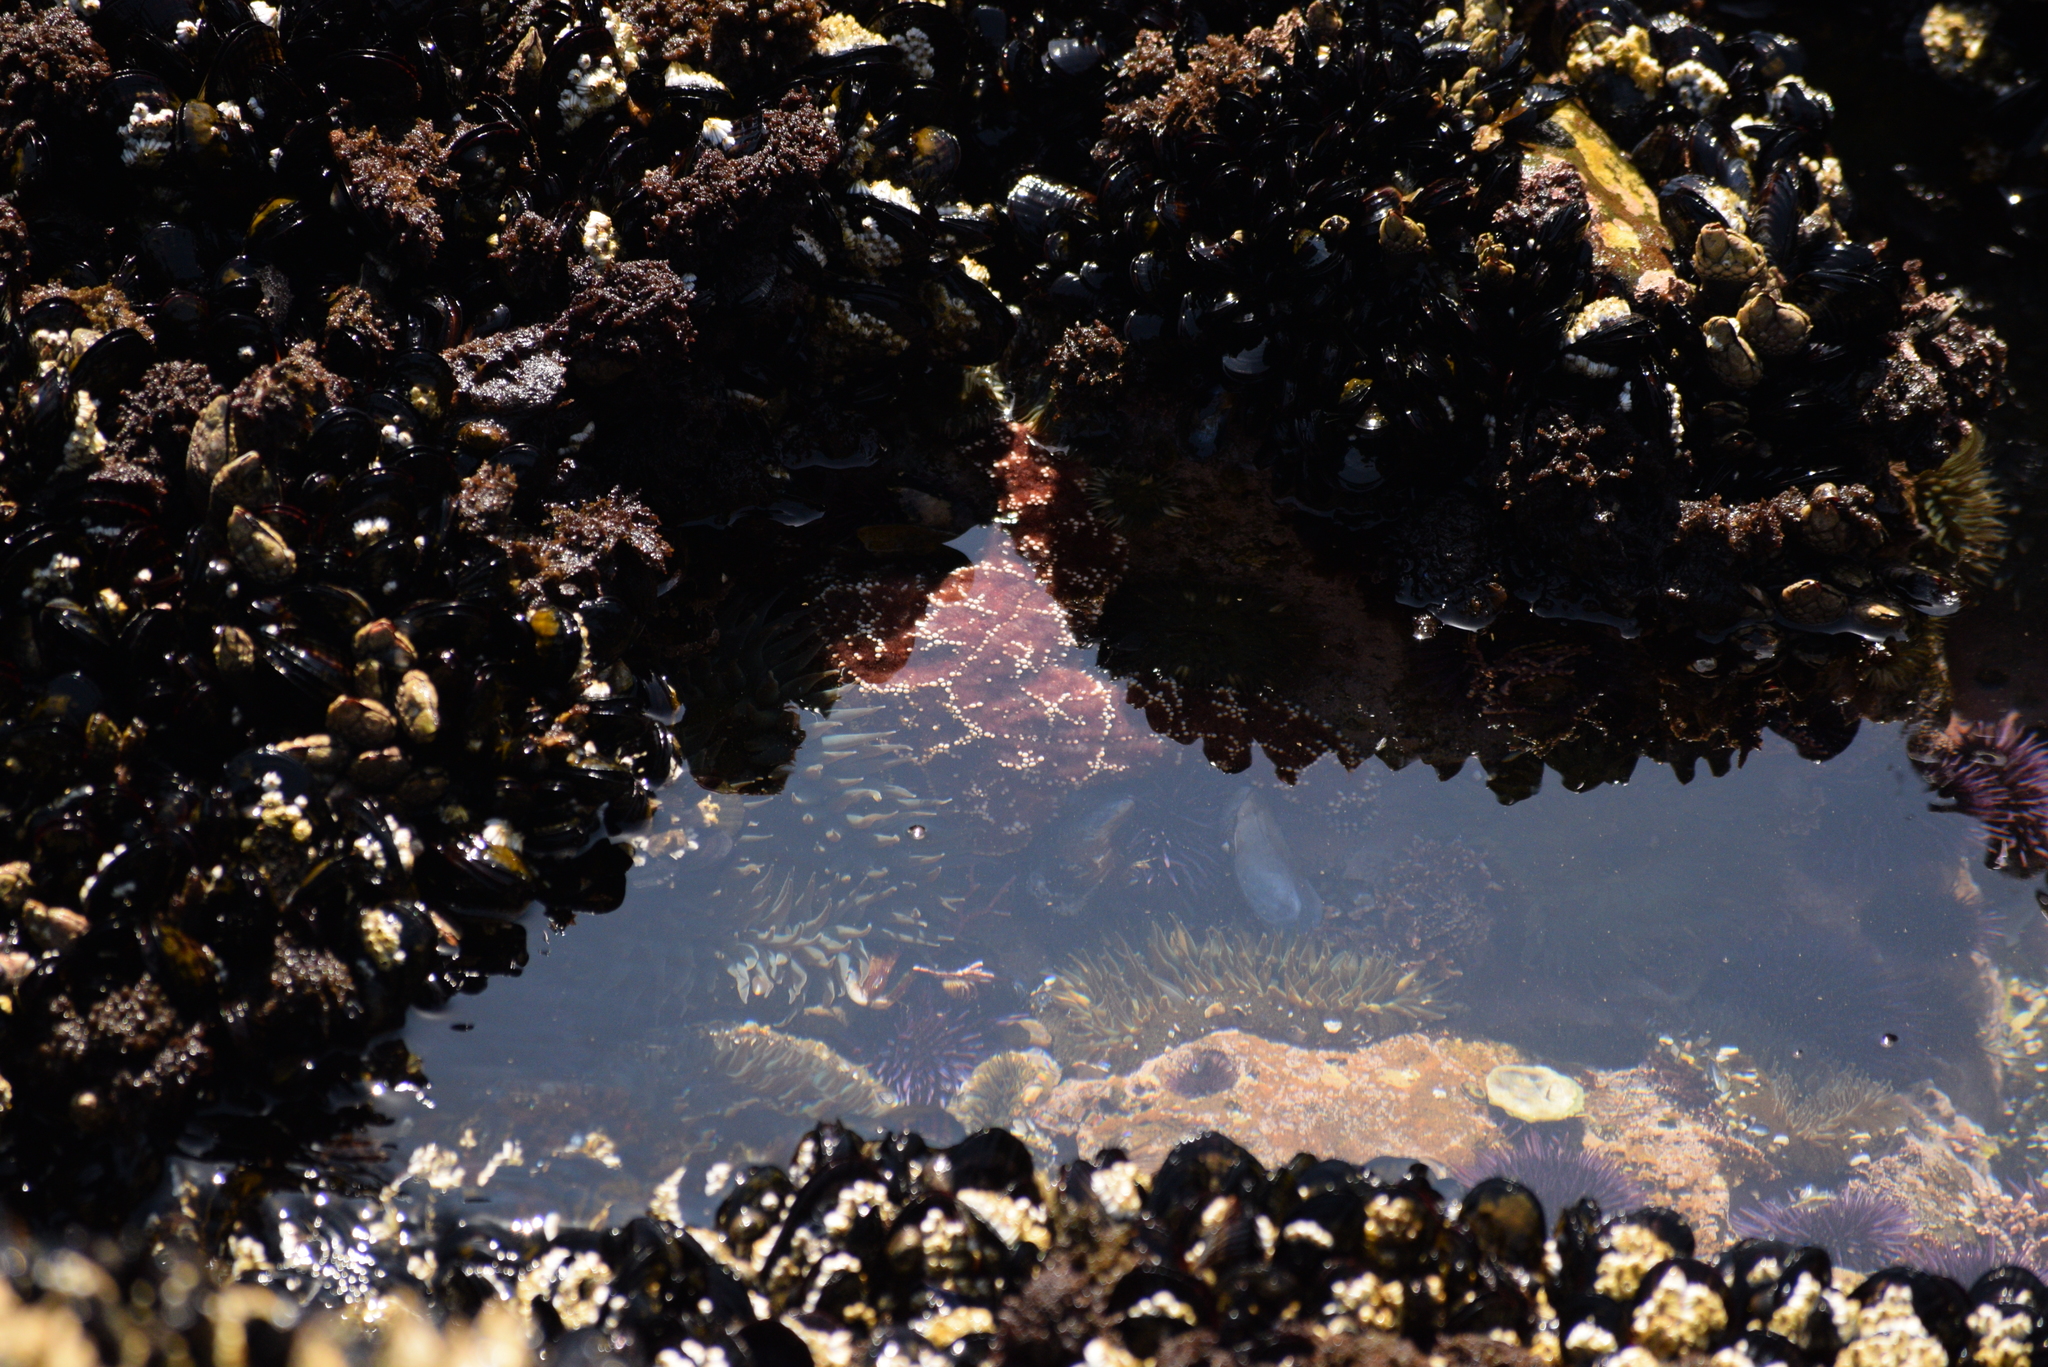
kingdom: Animalia
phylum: Echinodermata
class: Asteroidea
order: Forcipulatida
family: Asteriidae
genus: Pisaster
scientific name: Pisaster ochraceus
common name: Ochre stars
